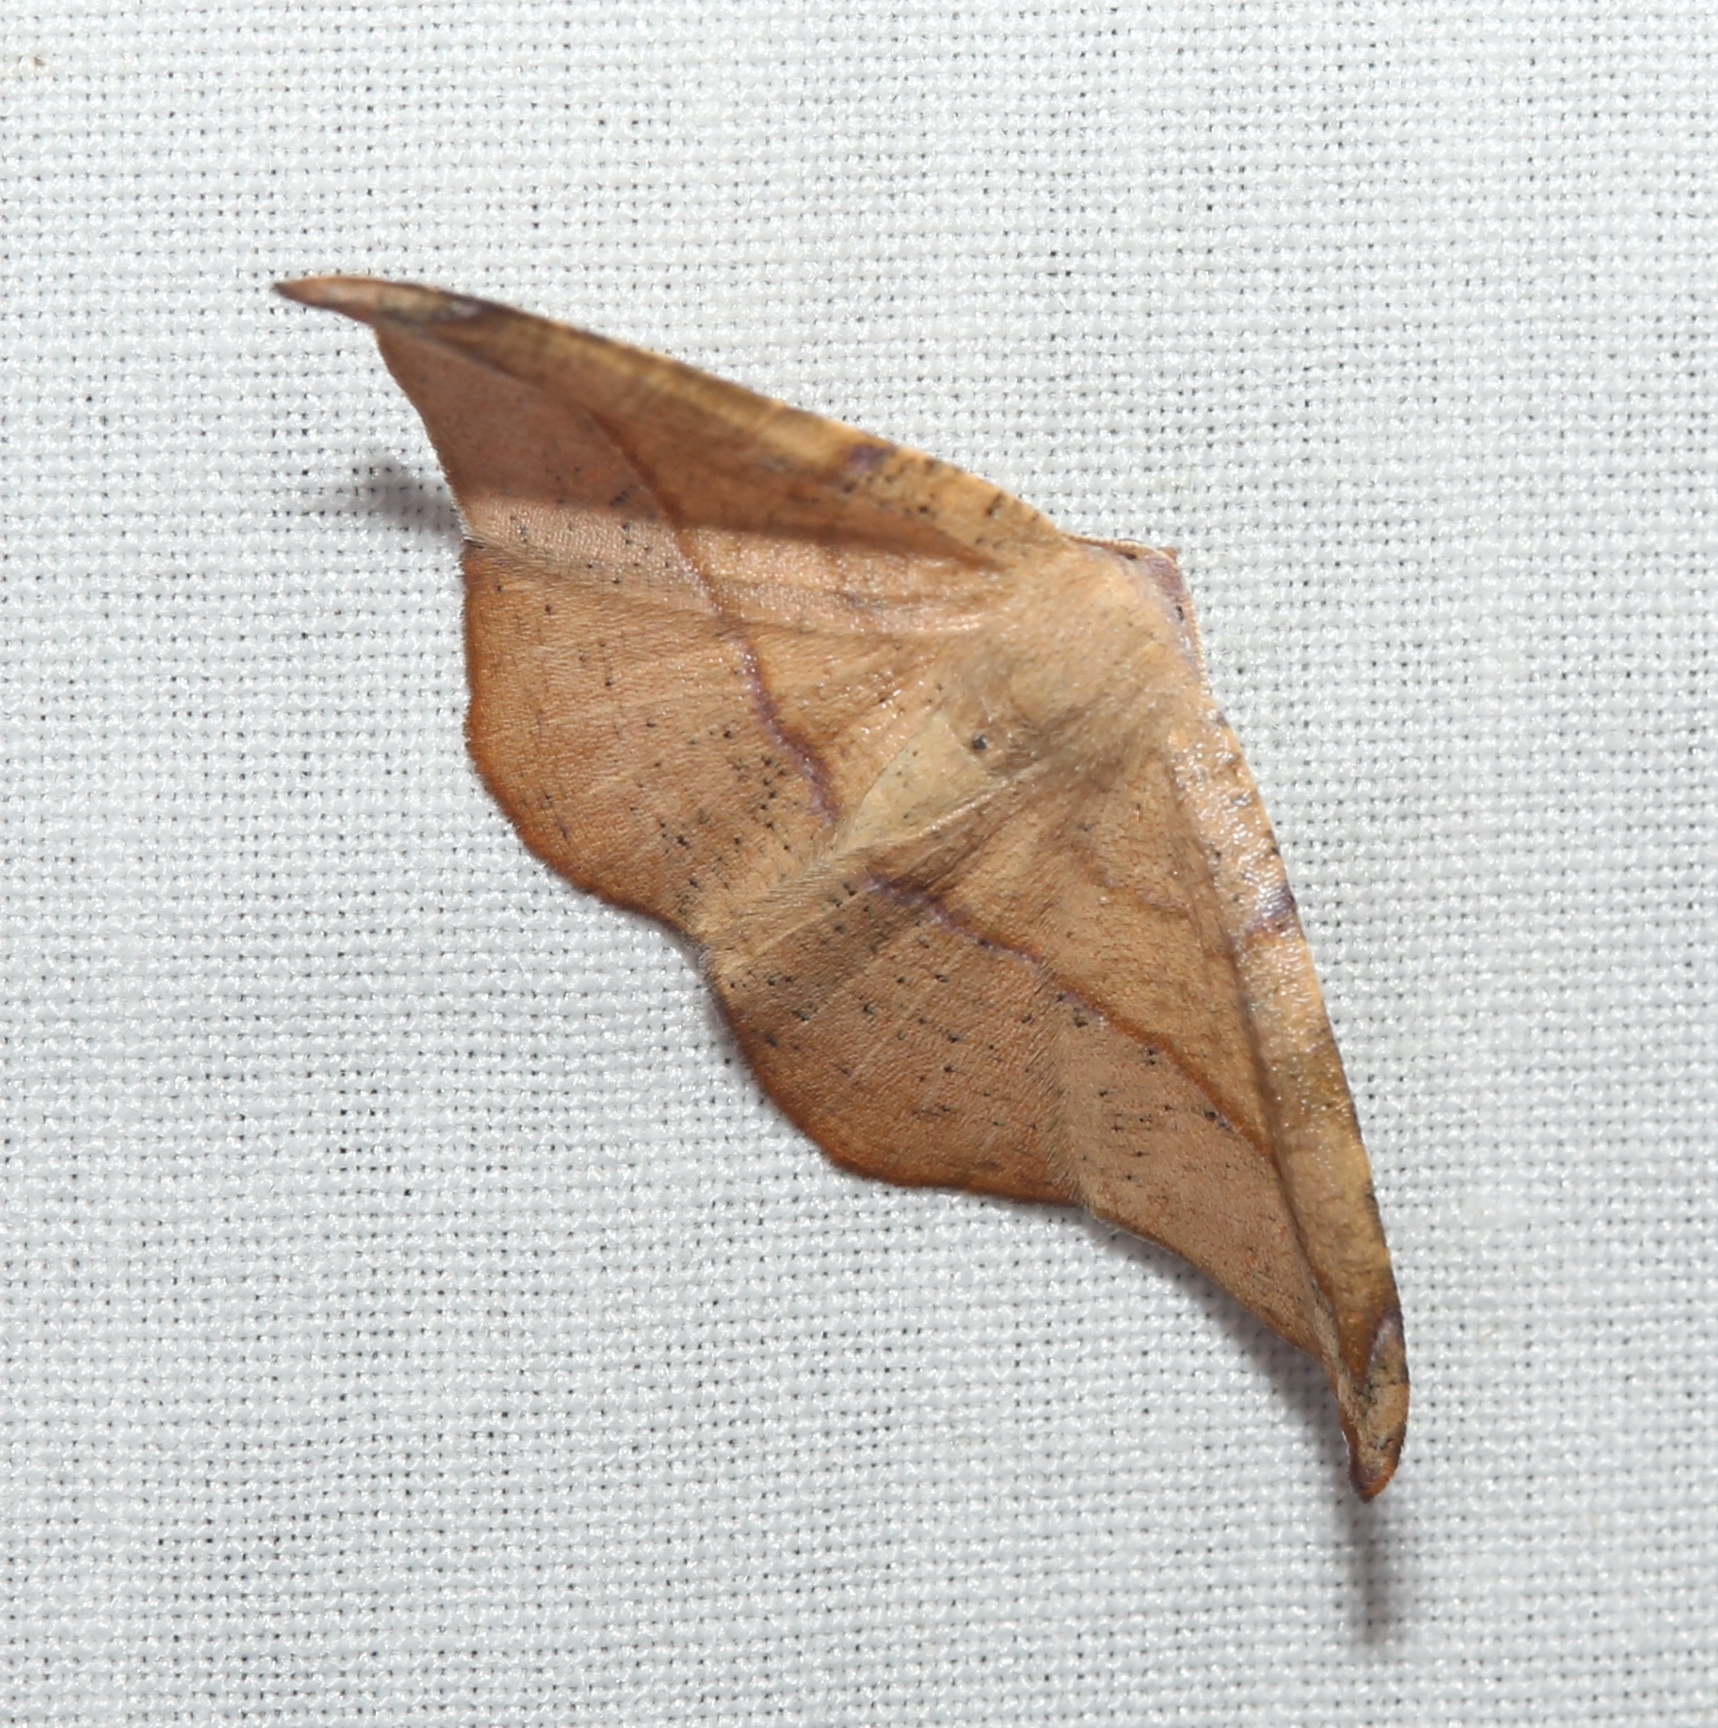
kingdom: Animalia
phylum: Arthropoda
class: Insecta
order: Lepidoptera
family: Geometridae
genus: Patalene
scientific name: Patalene olyzonaria
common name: Juniper geometer moth
